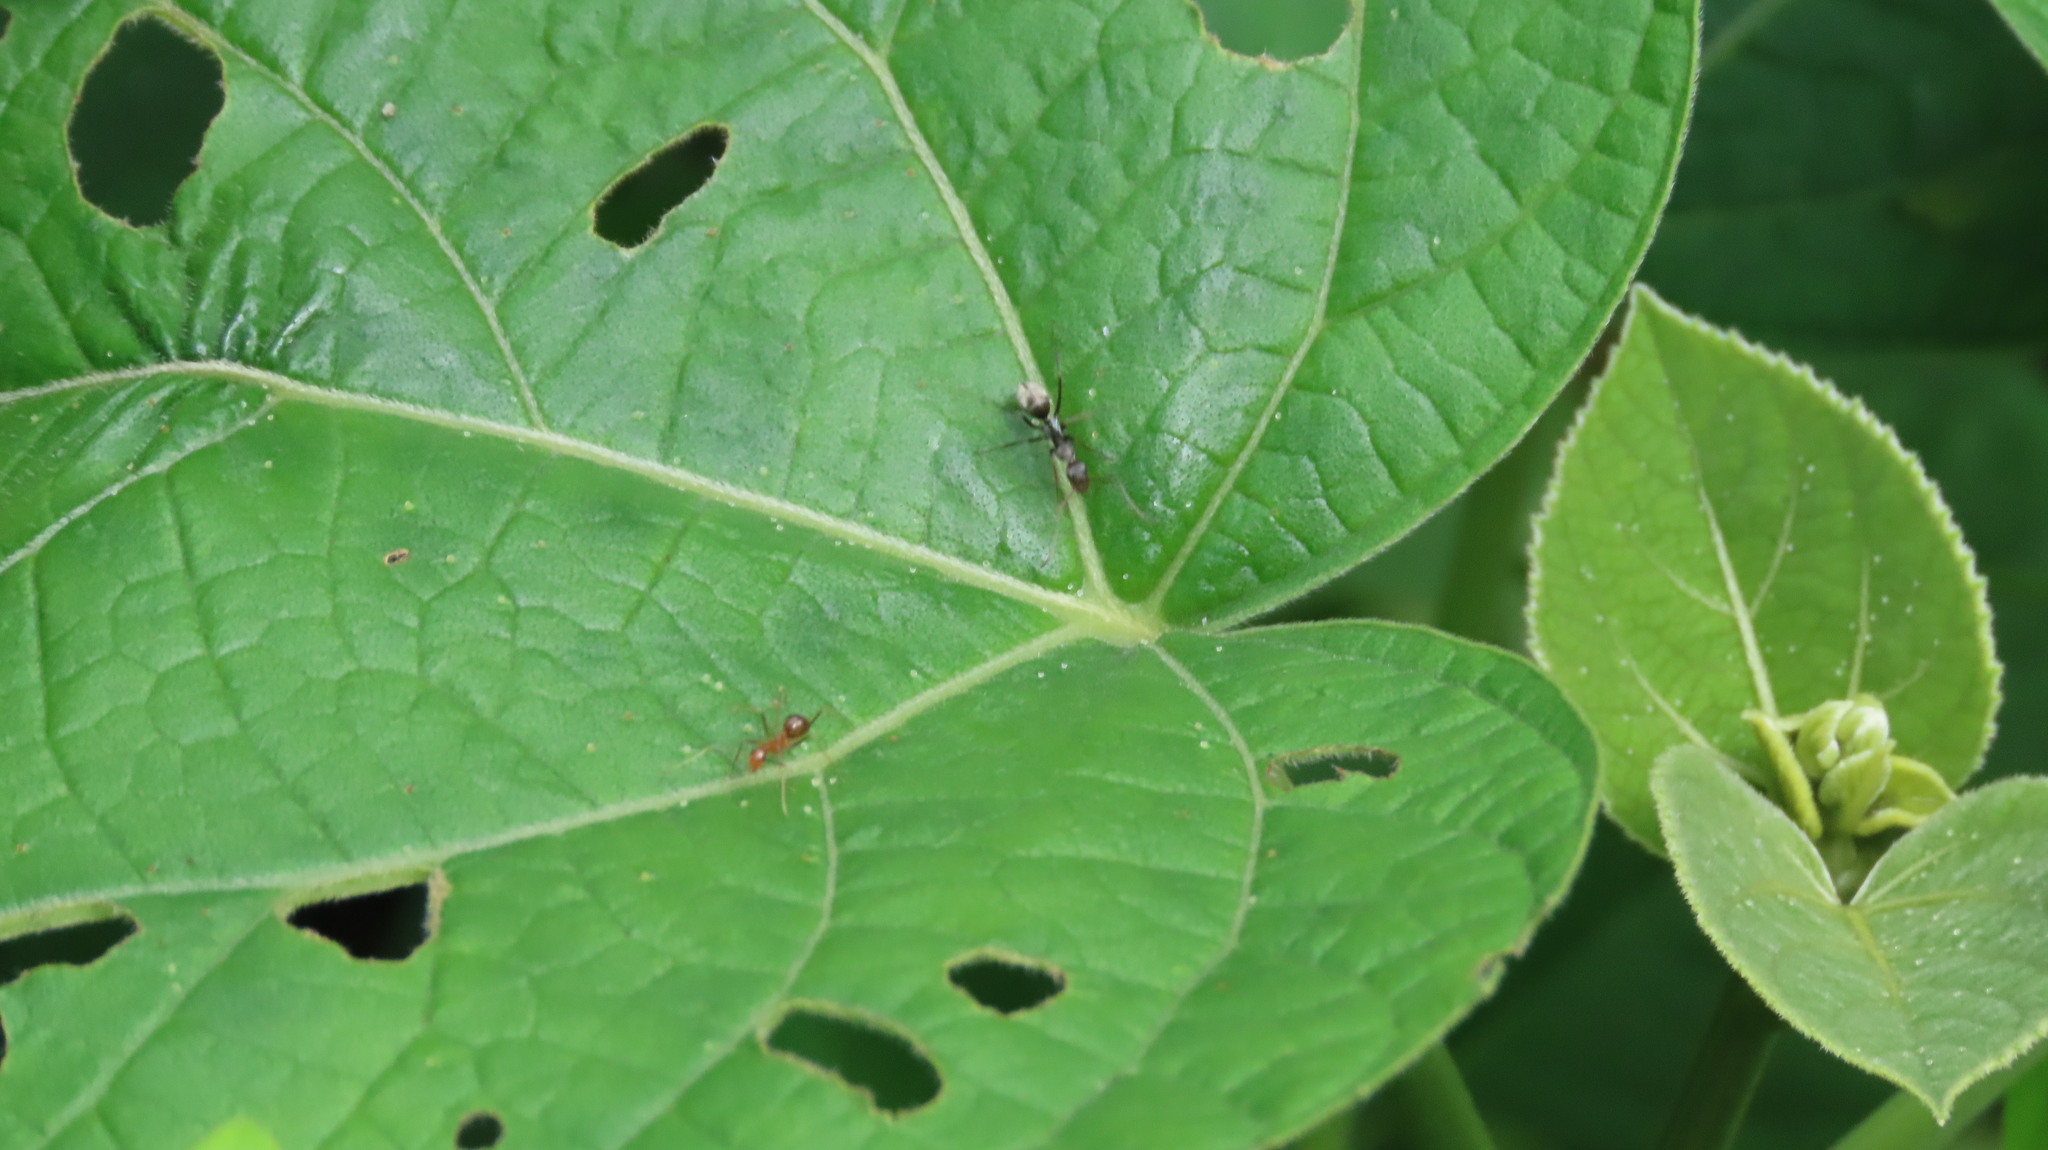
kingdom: Animalia
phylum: Arthropoda
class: Insecta
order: Hymenoptera
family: Formicidae
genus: Anoplolepis
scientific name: Anoplolepis gracilipes
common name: Ant
